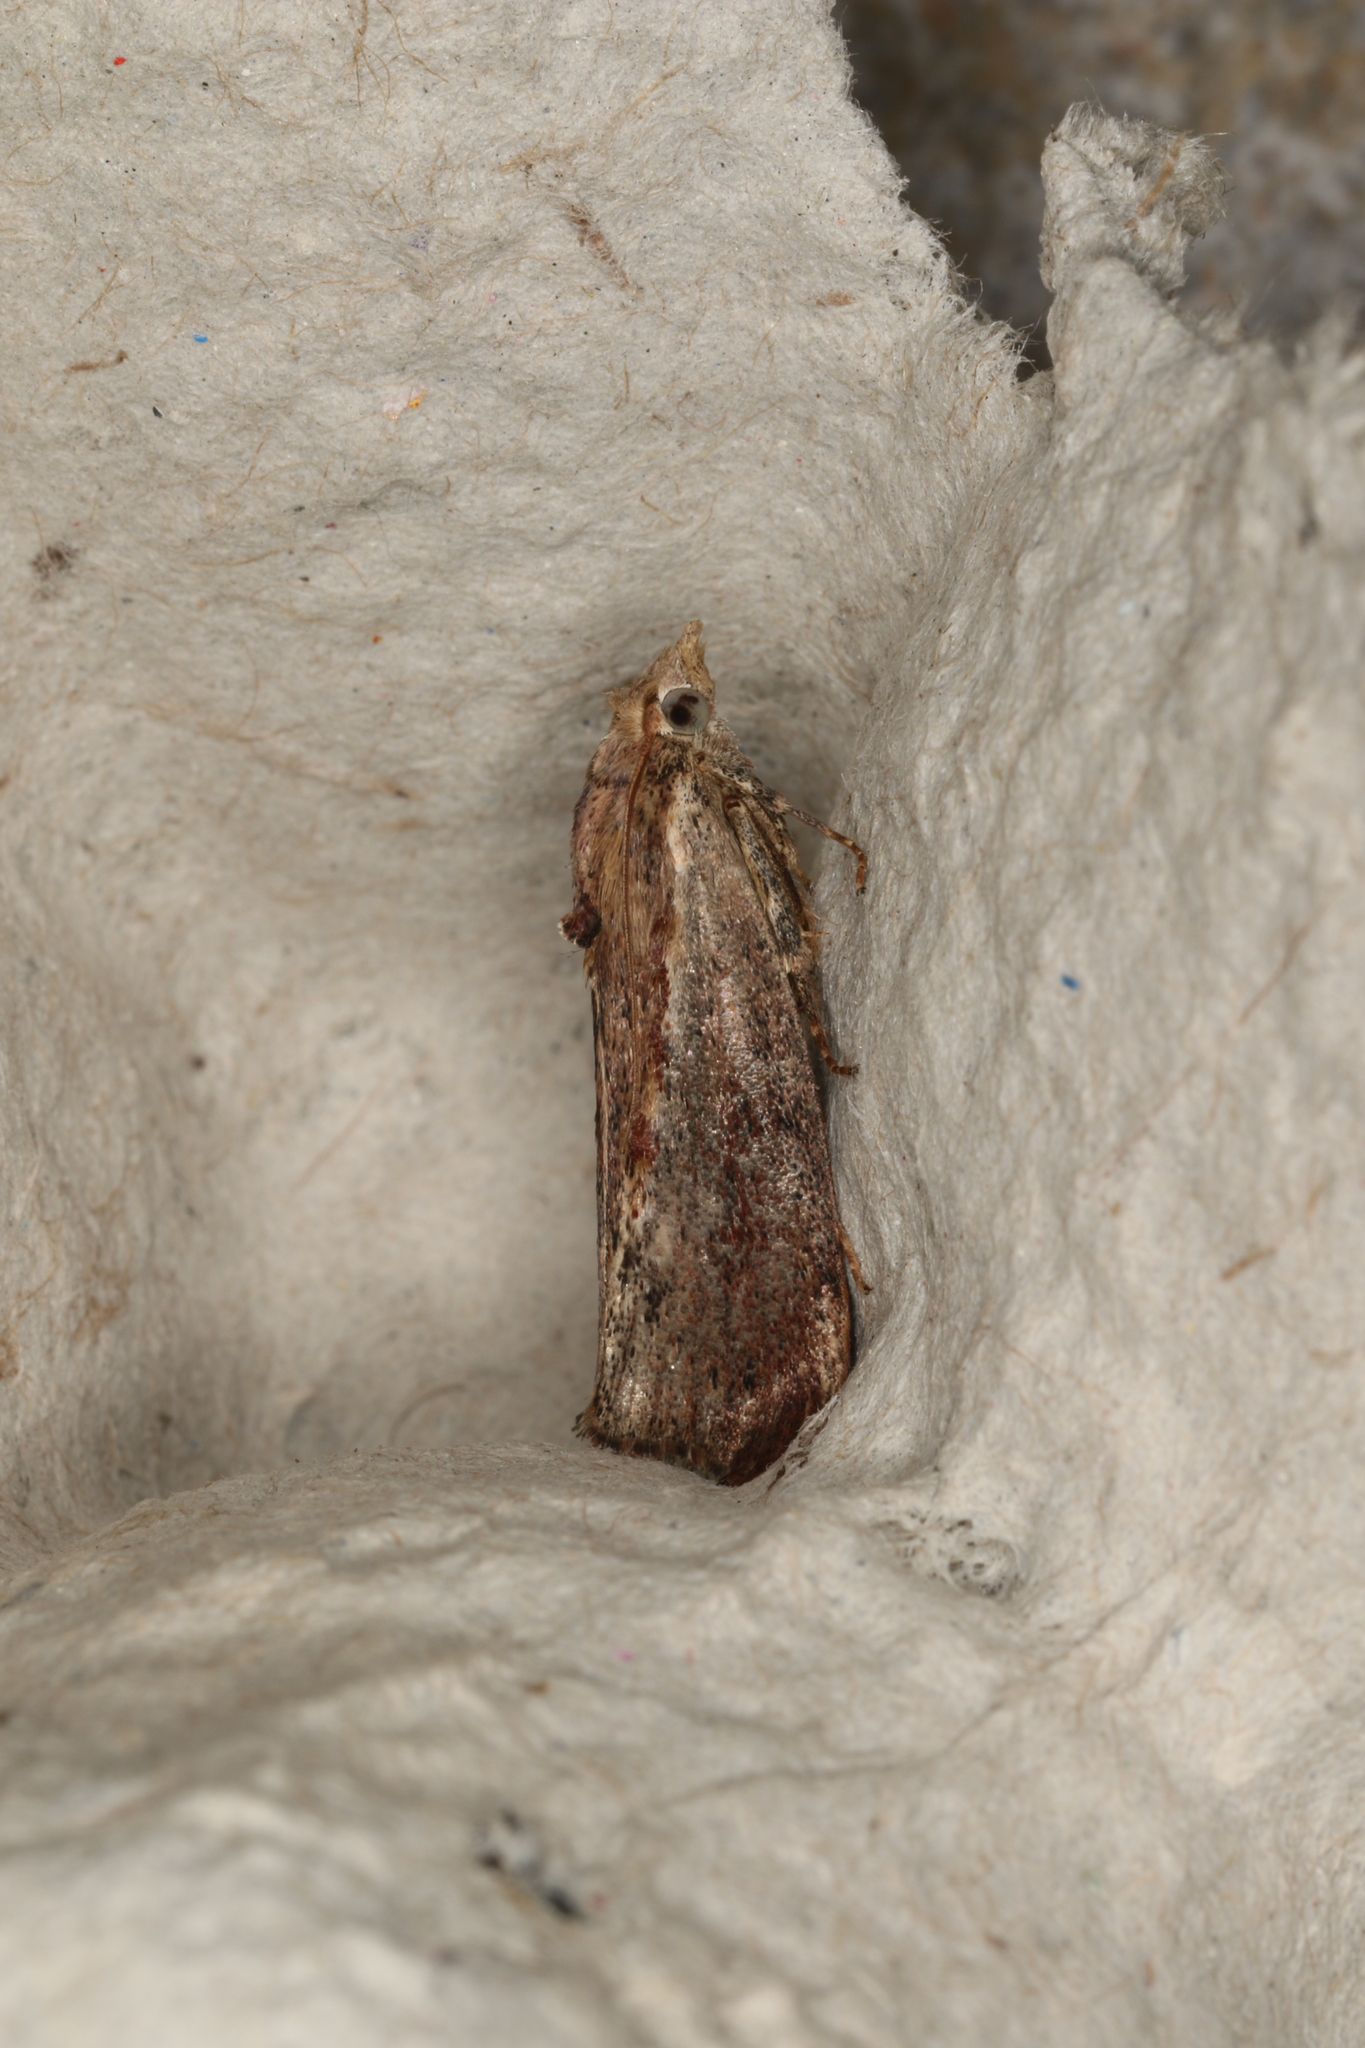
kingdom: Animalia
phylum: Arthropoda
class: Insecta
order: Lepidoptera
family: Pyralidae
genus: Galleria
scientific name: Galleria mellonella
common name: Greater wax moth
